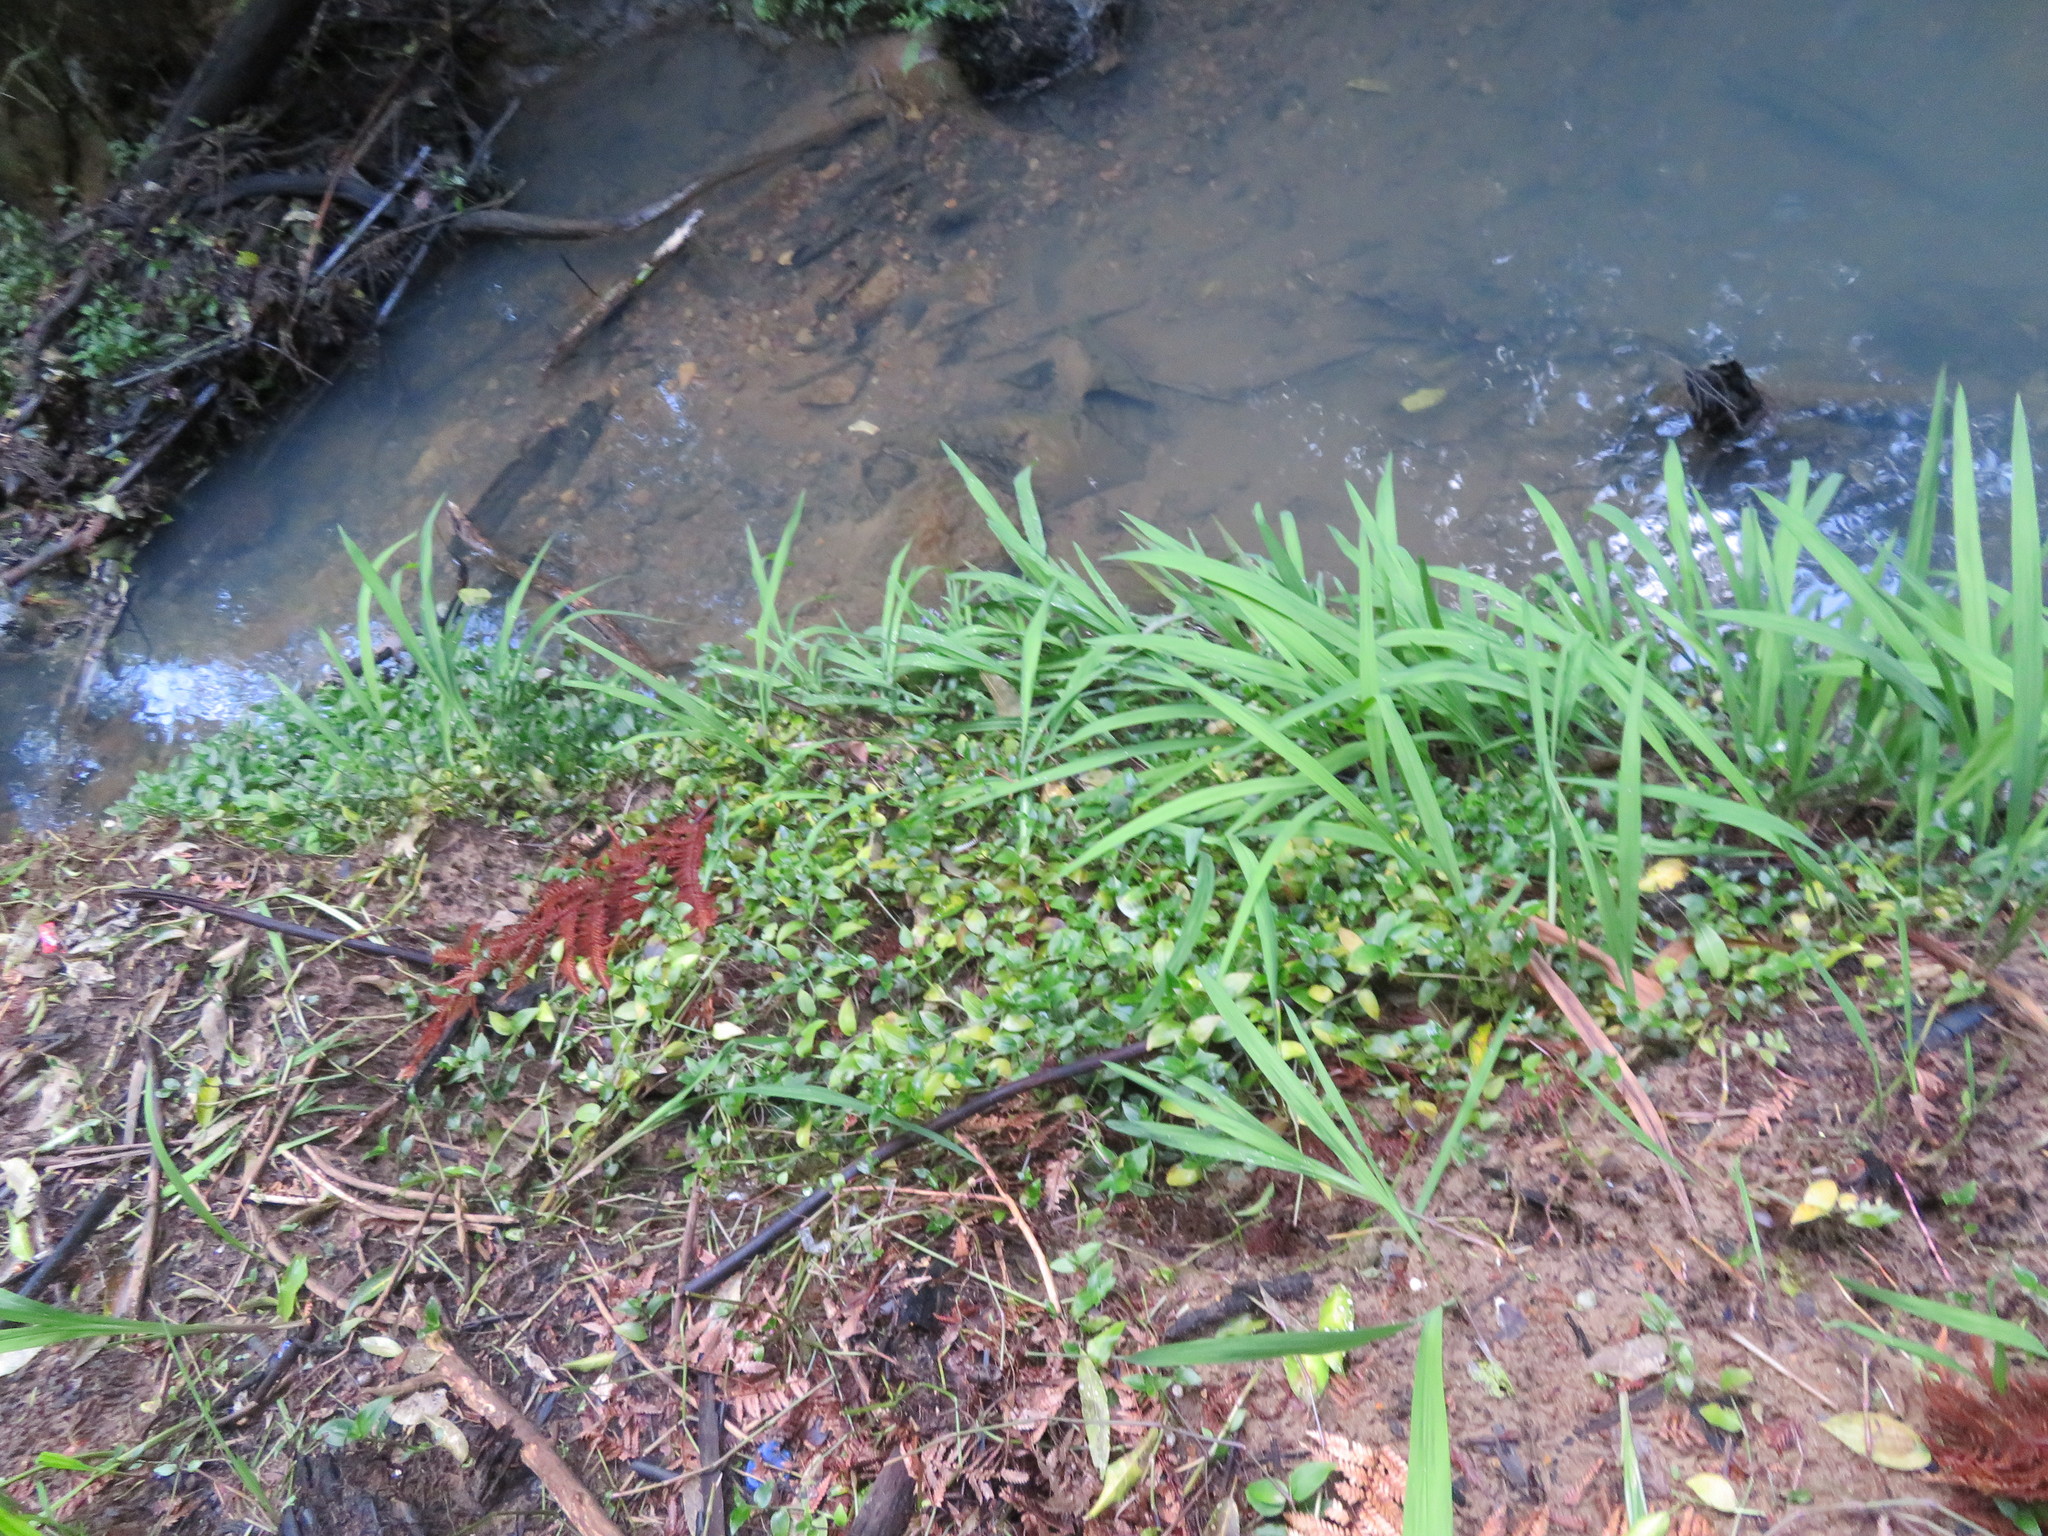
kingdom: Plantae
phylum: Tracheophyta
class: Liliopsida
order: Commelinales
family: Commelinaceae
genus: Tradescantia
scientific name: Tradescantia fluminensis
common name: Wandering-jew
